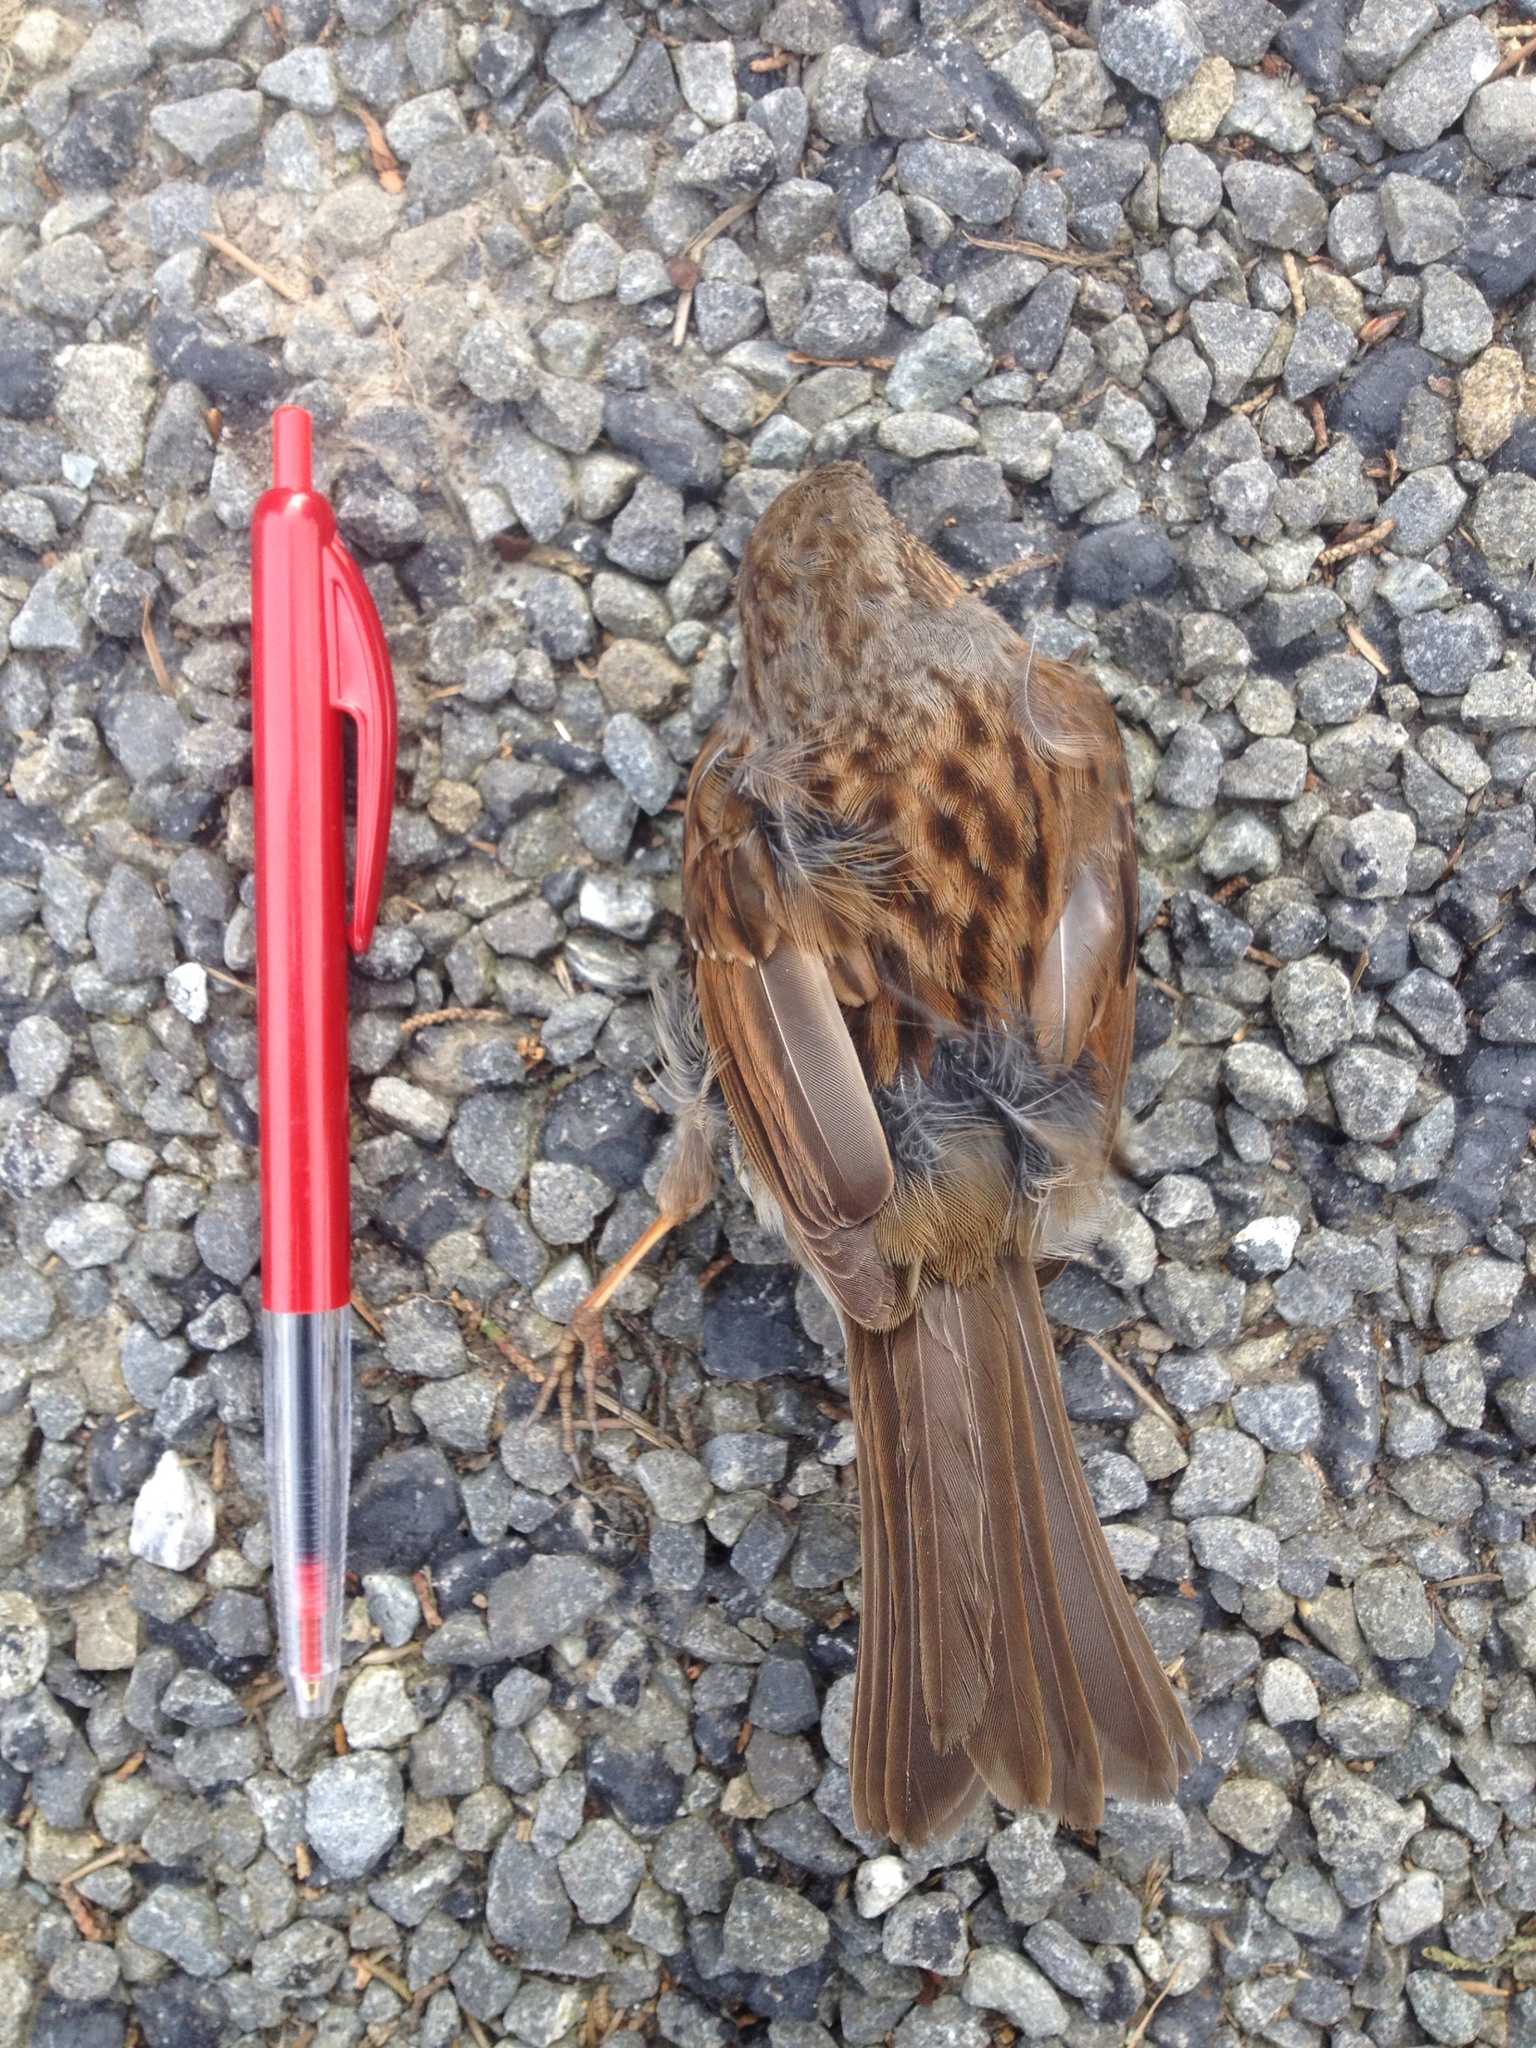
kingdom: Animalia
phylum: Chordata
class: Aves
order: Passeriformes
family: Prunellidae
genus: Prunella
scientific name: Prunella modularis
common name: Dunnock
